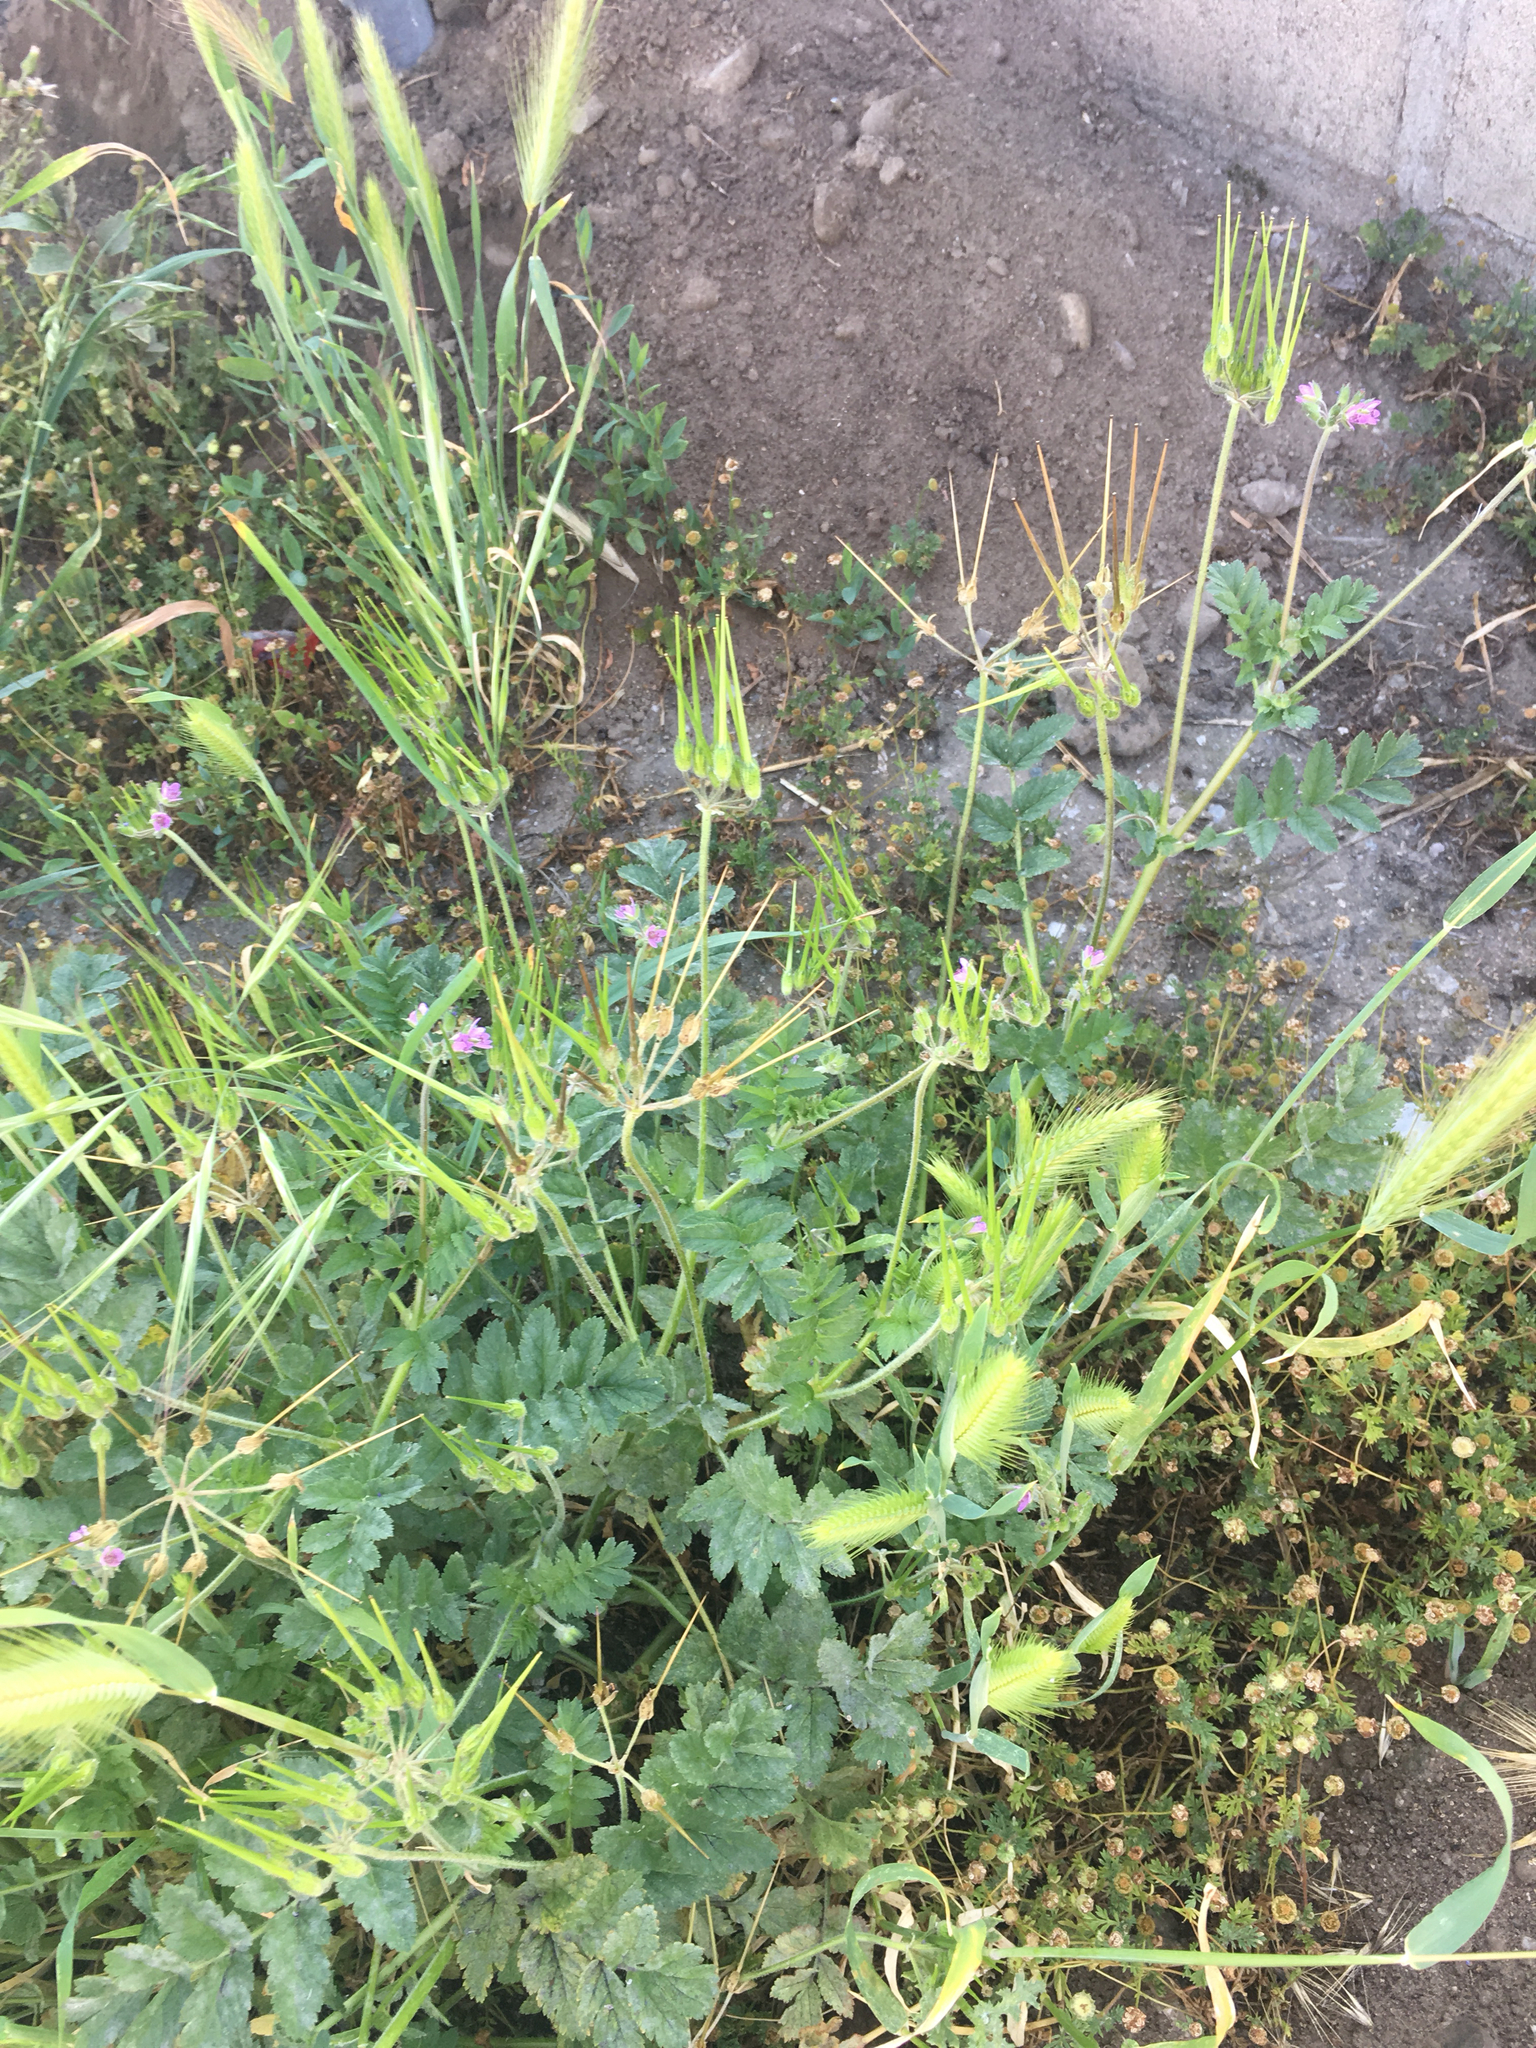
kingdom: Plantae
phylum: Tracheophyta
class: Magnoliopsida
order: Geraniales
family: Geraniaceae
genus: Erodium
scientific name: Erodium moschatum
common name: Musk stork's-bill
